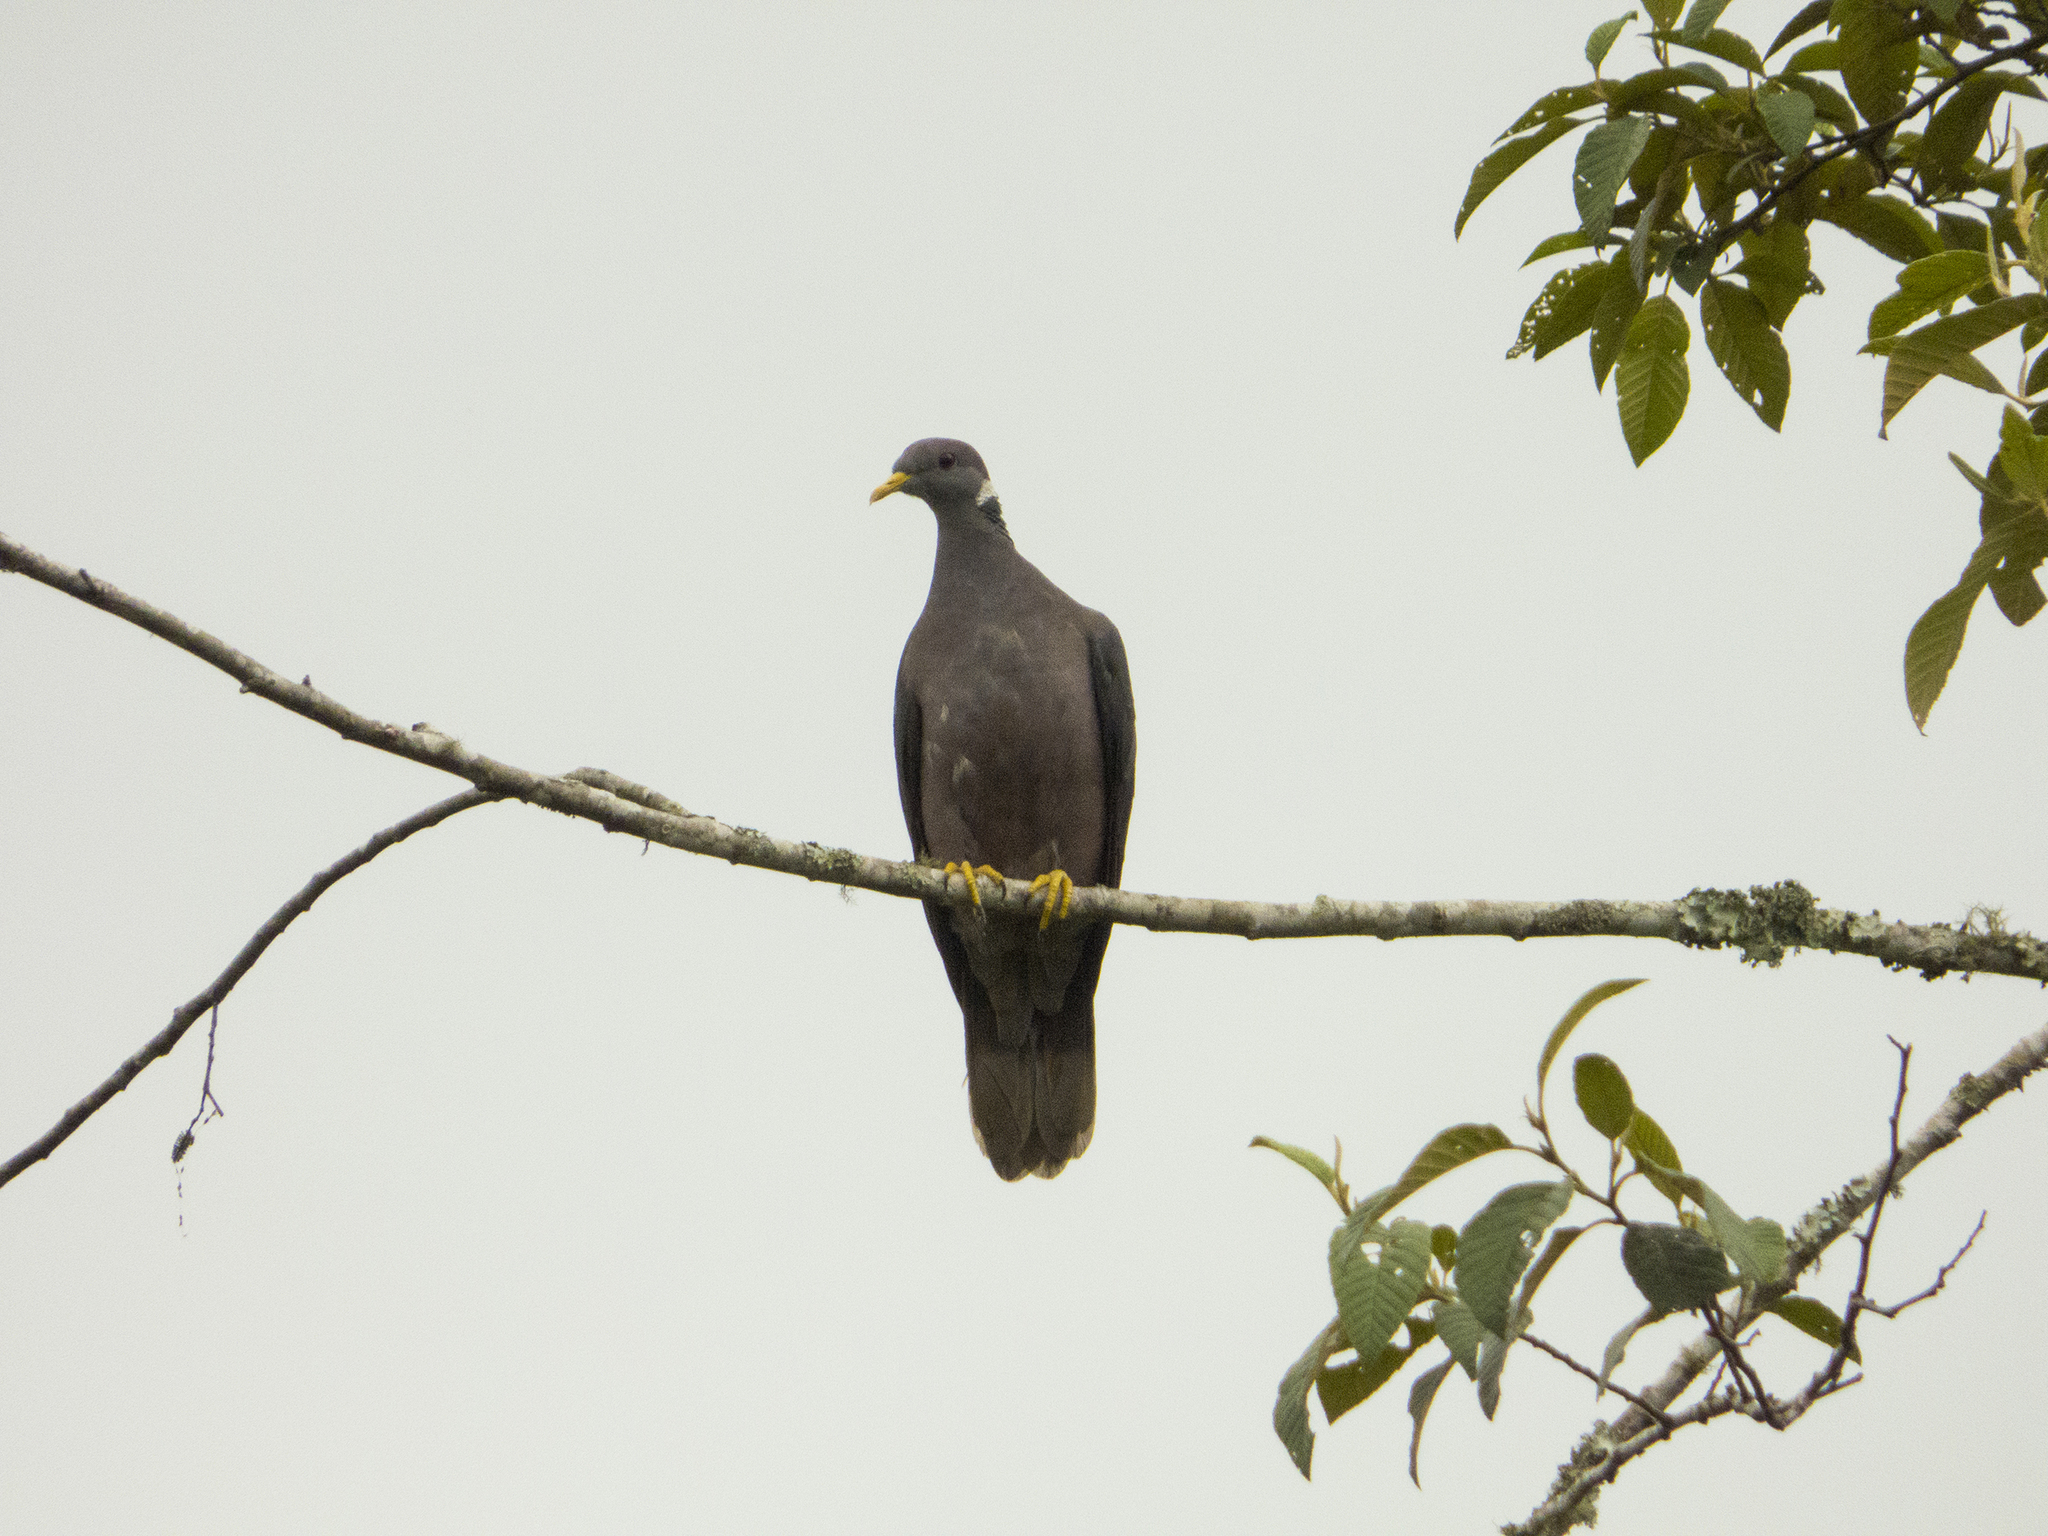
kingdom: Animalia
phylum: Chordata
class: Aves
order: Columbiformes
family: Columbidae
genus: Patagioenas
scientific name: Patagioenas fasciata
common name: Band-tailed pigeon
